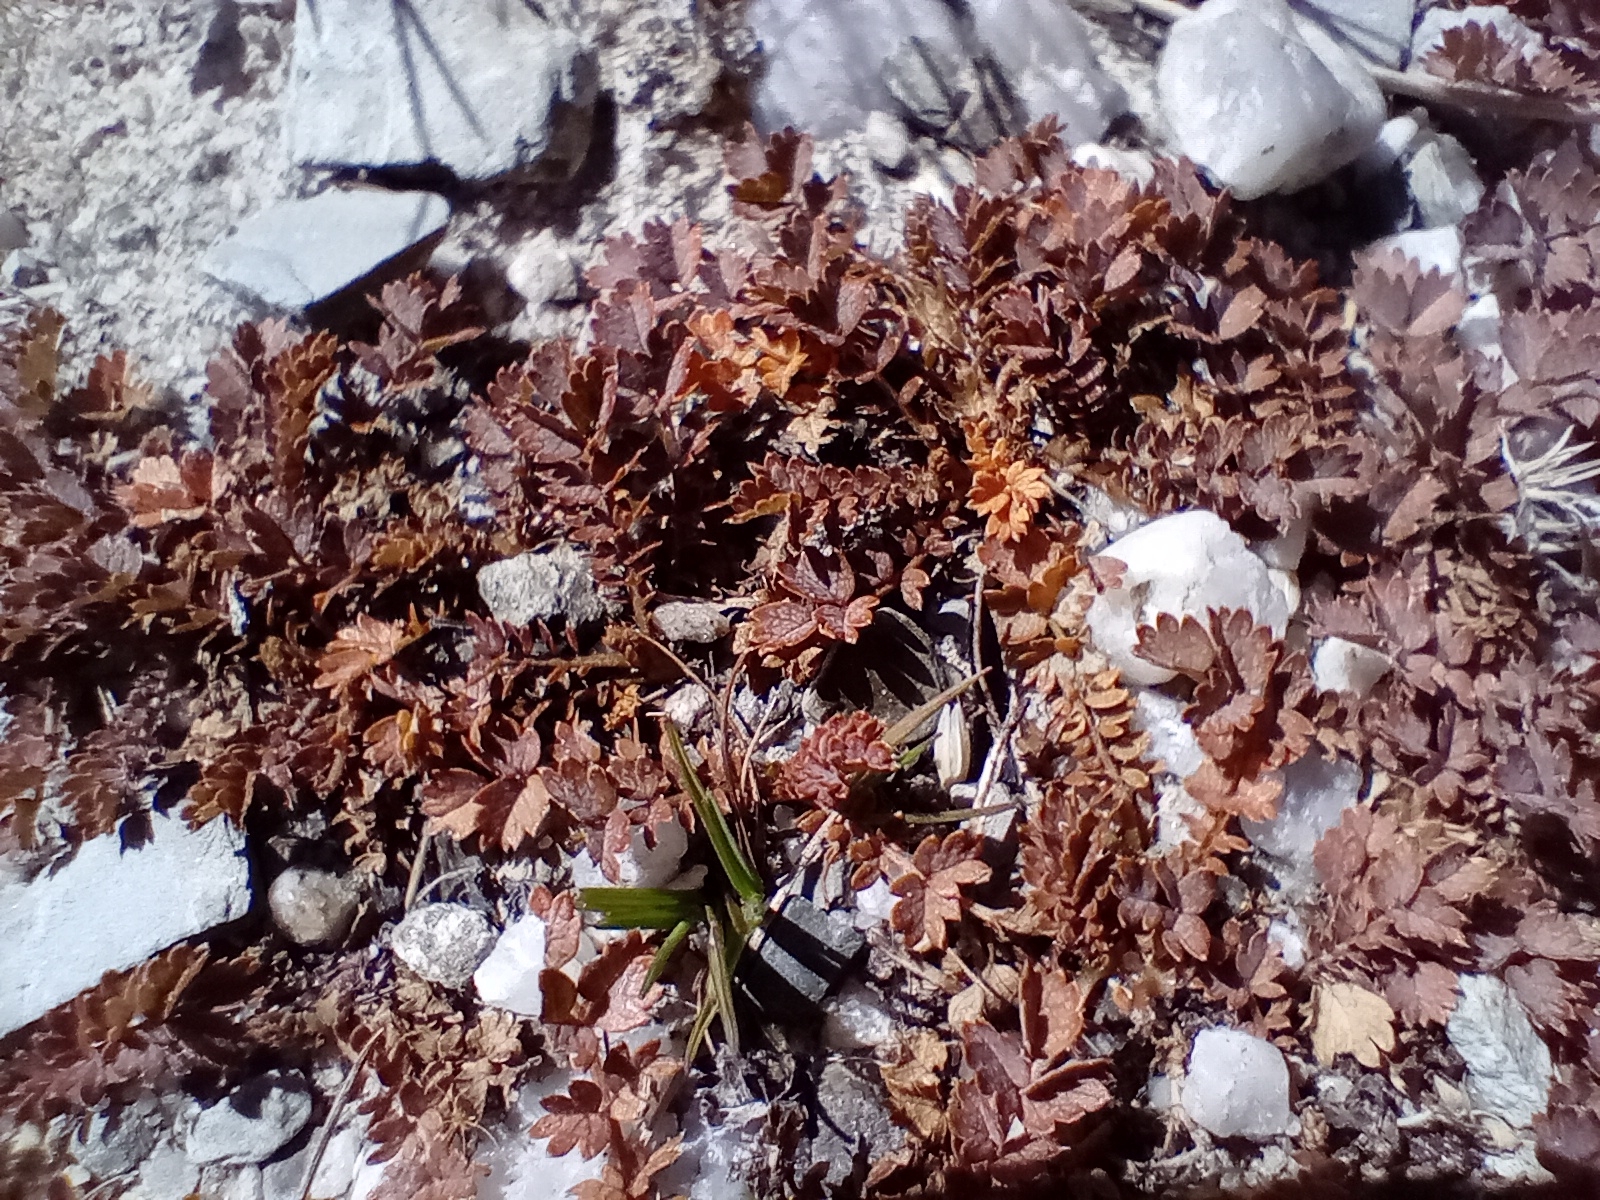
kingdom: Plantae
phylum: Tracheophyta
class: Magnoliopsida
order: Rosales
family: Rosaceae
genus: Acaena
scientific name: Acaena inermis
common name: Spineless acaena
